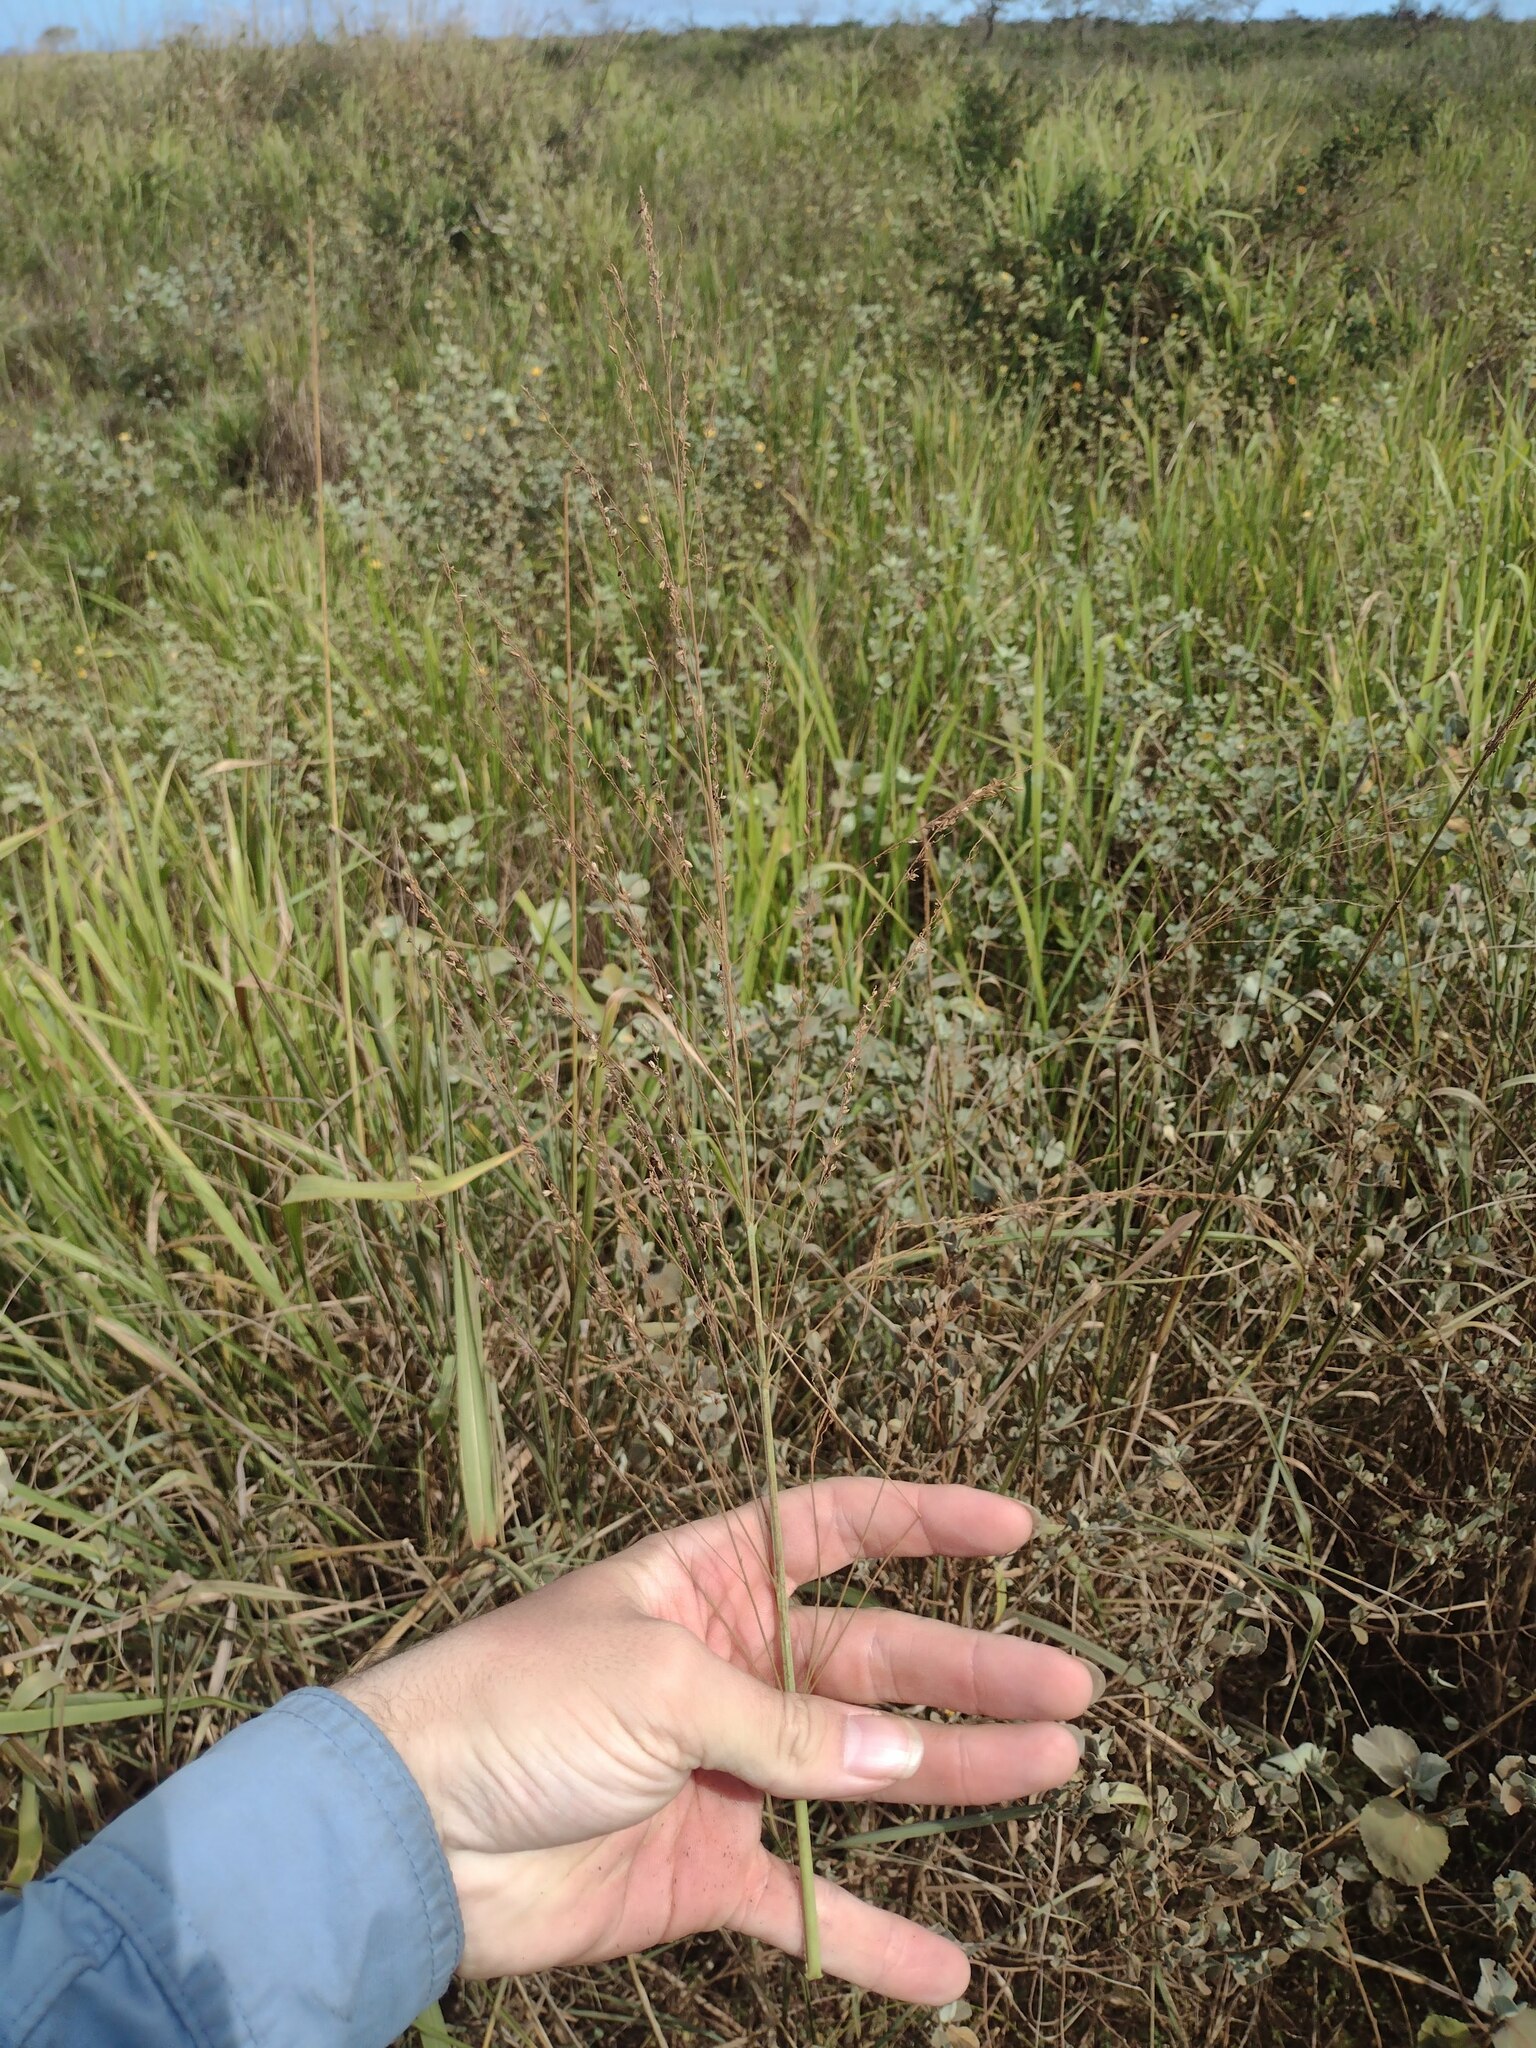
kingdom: Plantae
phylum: Tracheophyta
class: Liliopsida
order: Poales
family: Poaceae
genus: Megathyrsus
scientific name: Megathyrsus maximus
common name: Guineagrass
